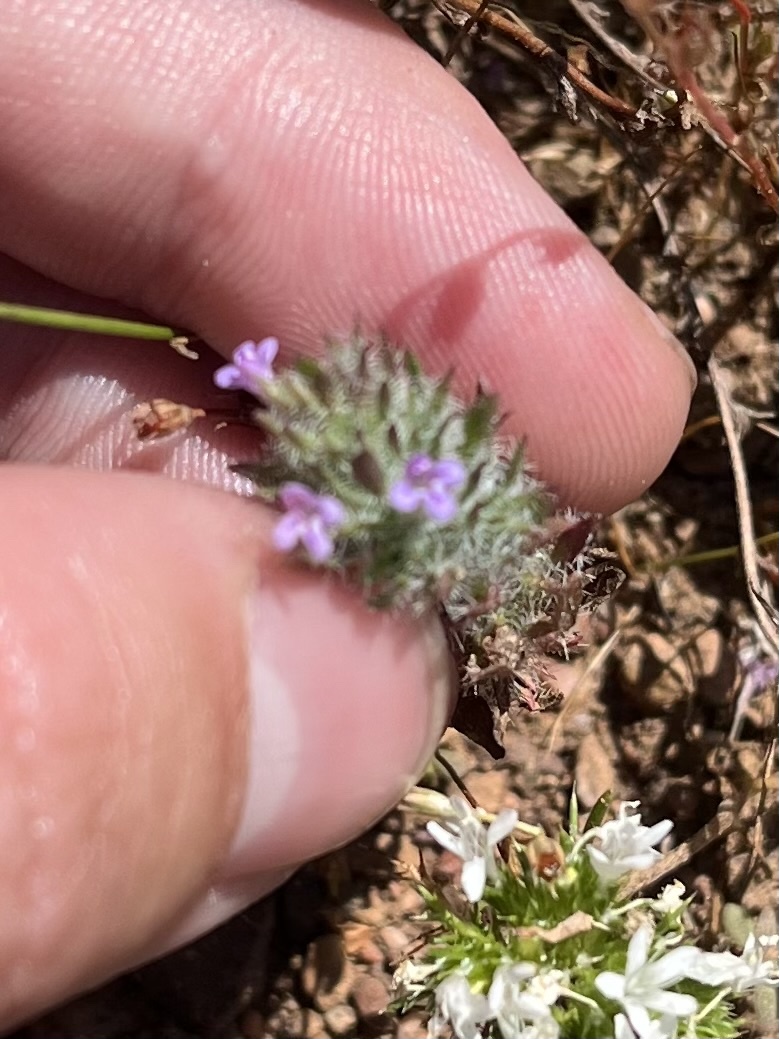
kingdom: Plantae
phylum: Tracheophyta
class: Magnoliopsida
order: Lamiales
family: Lamiaceae
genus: Pogogyne
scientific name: Pogogyne zizyphoroides
